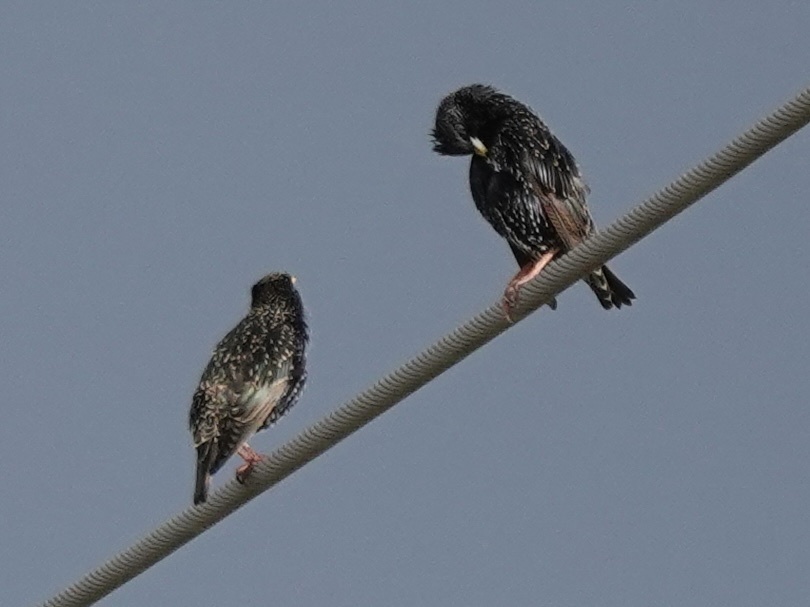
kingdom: Animalia
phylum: Chordata
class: Aves
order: Passeriformes
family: Sturnidae
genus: Sturnus
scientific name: Sturnus vulgaris
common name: Common starling
